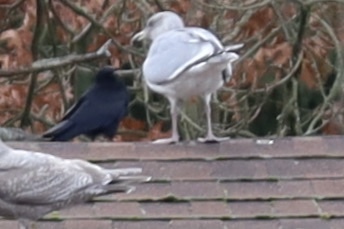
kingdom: Animalia
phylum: Chordata
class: Aves
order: Charadriiformes
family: Laridae
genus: Larus
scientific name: Larus
